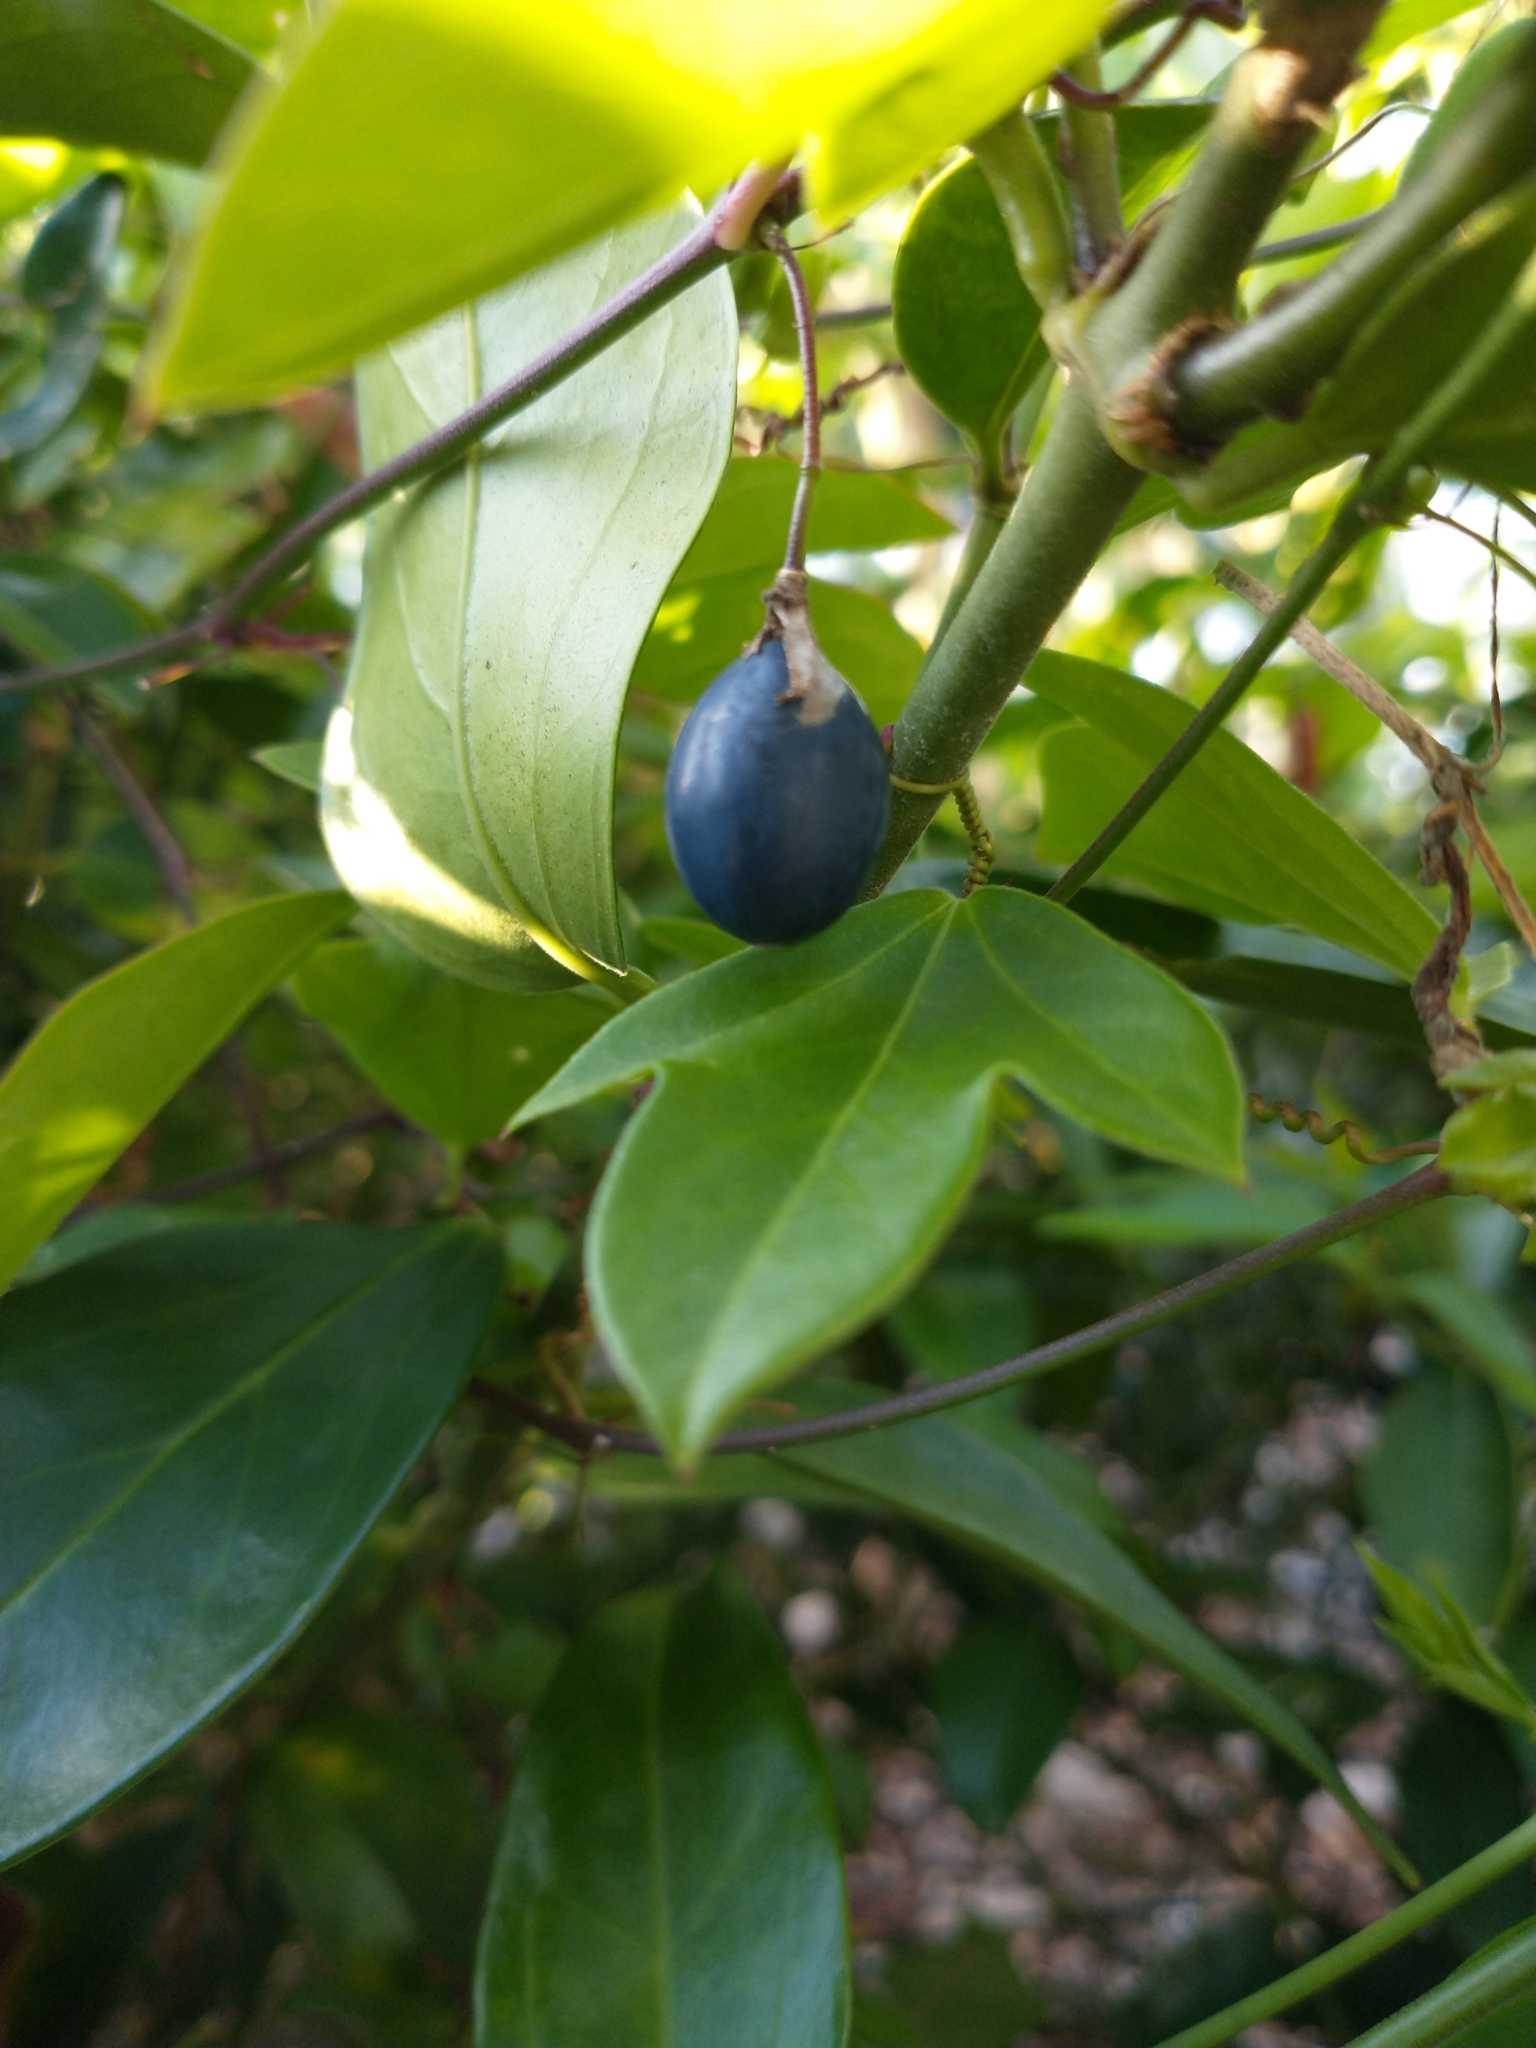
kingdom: Plantae
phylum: Tracheophyta
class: Magnoliopsida
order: Malpighiales
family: Passifloraceae
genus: Passiflora
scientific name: Passiflora pallida
